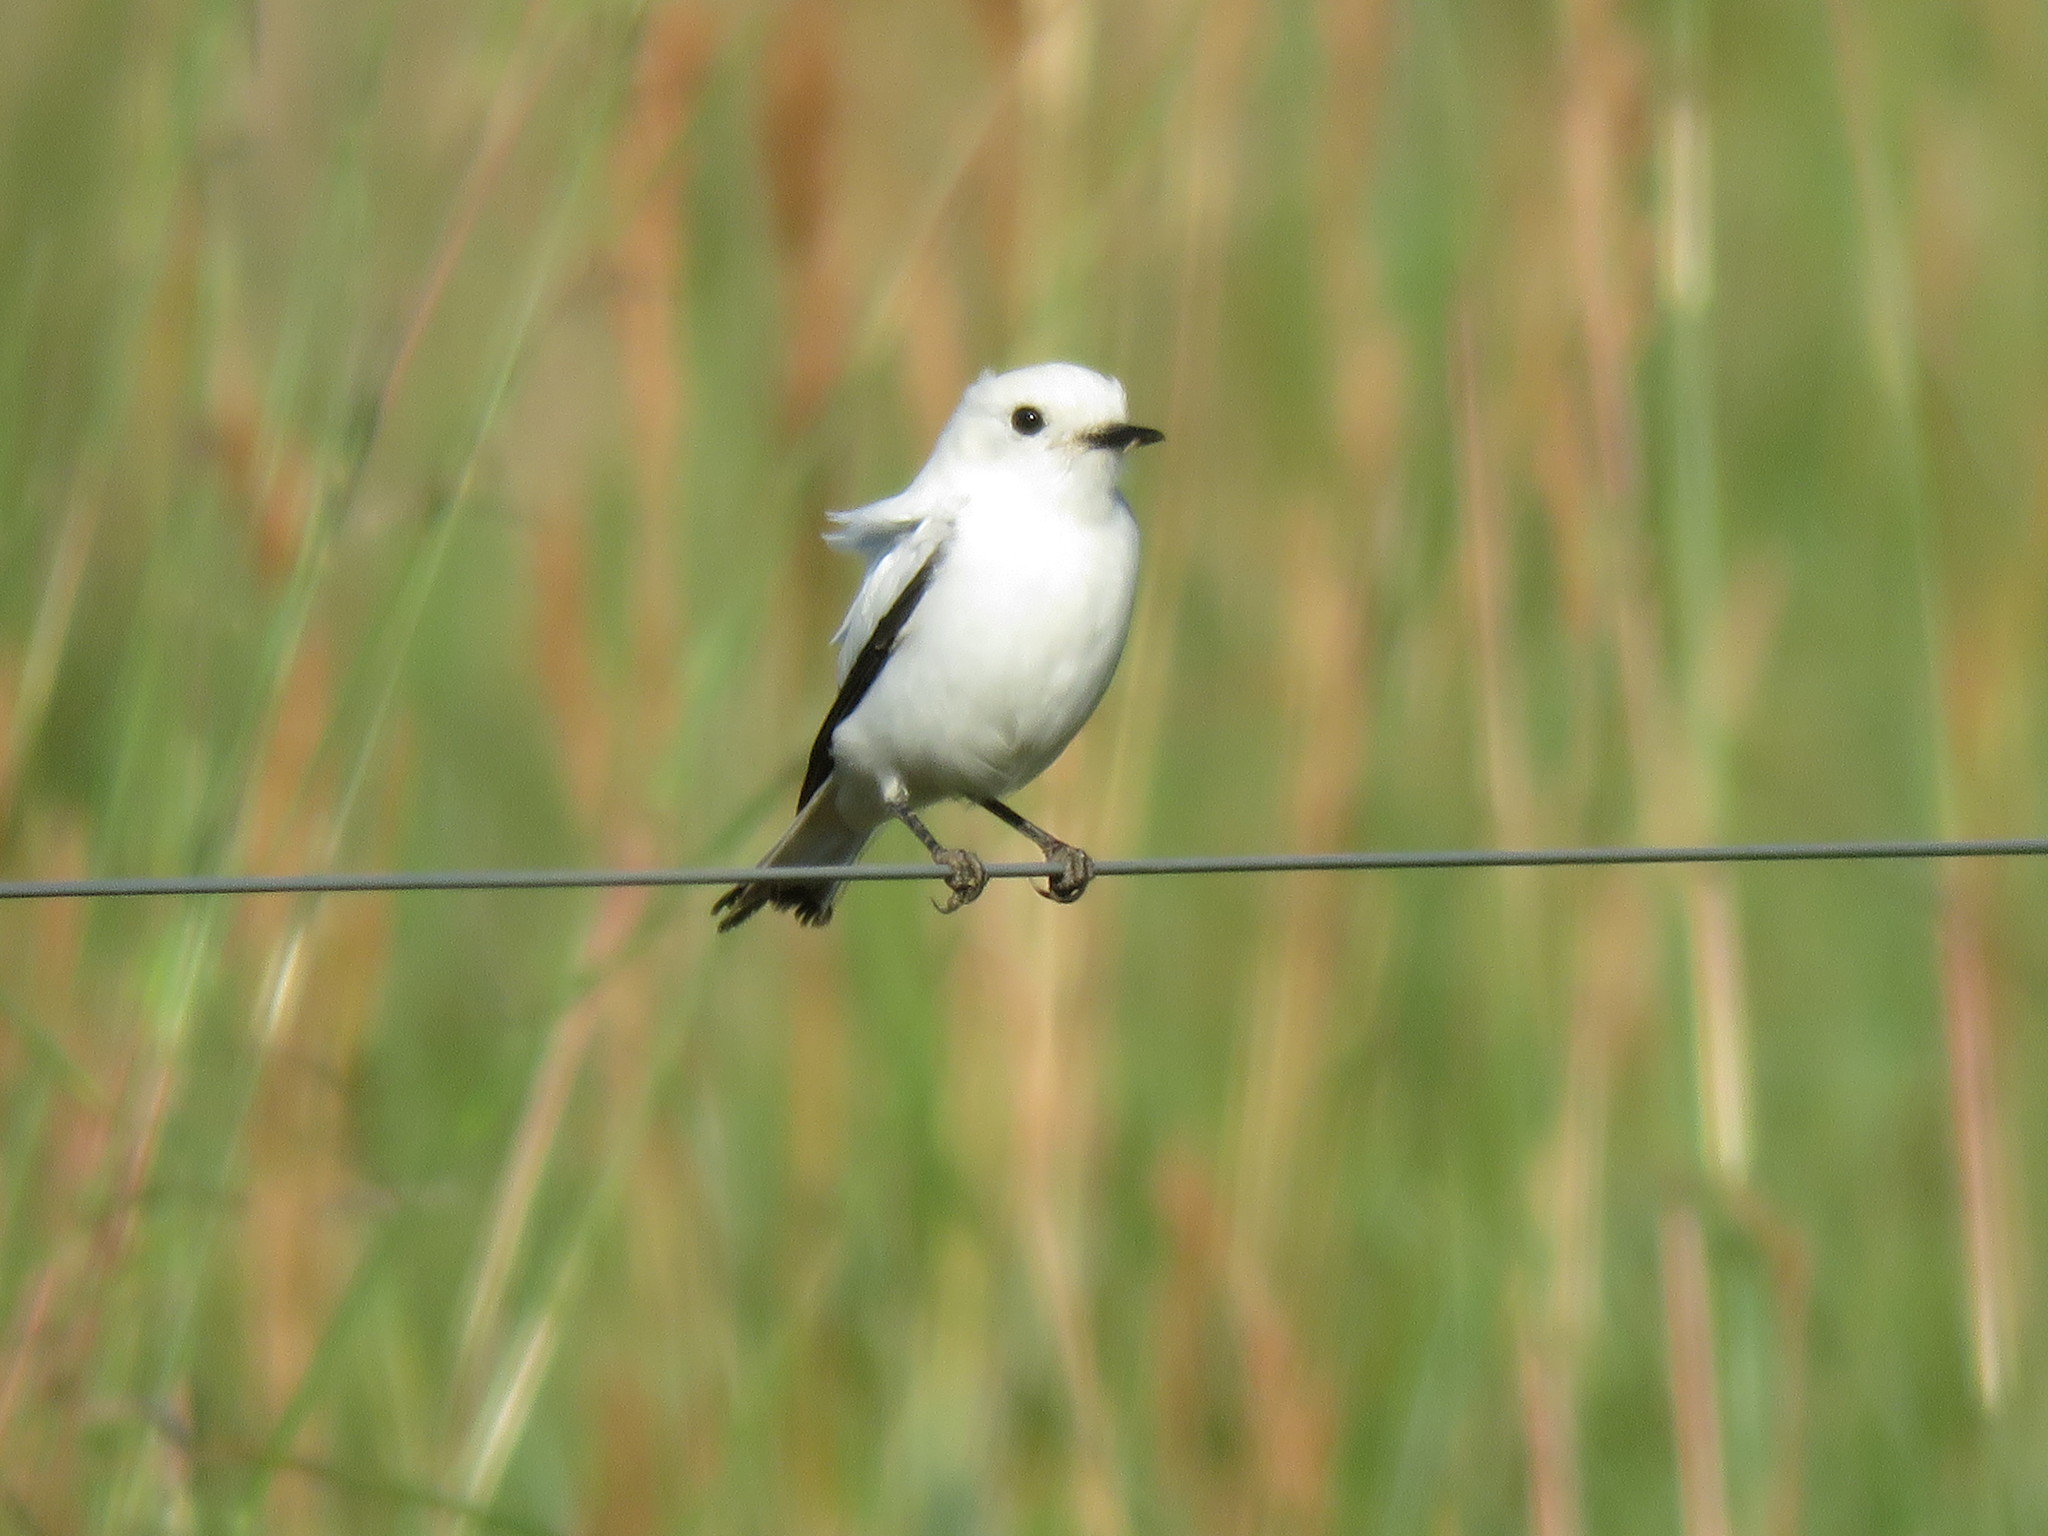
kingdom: Animalia
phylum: Chordata
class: Aves
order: Passeriformes
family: Tyrannidae
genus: Xolmis
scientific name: Xolmis irupero
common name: White monjita
